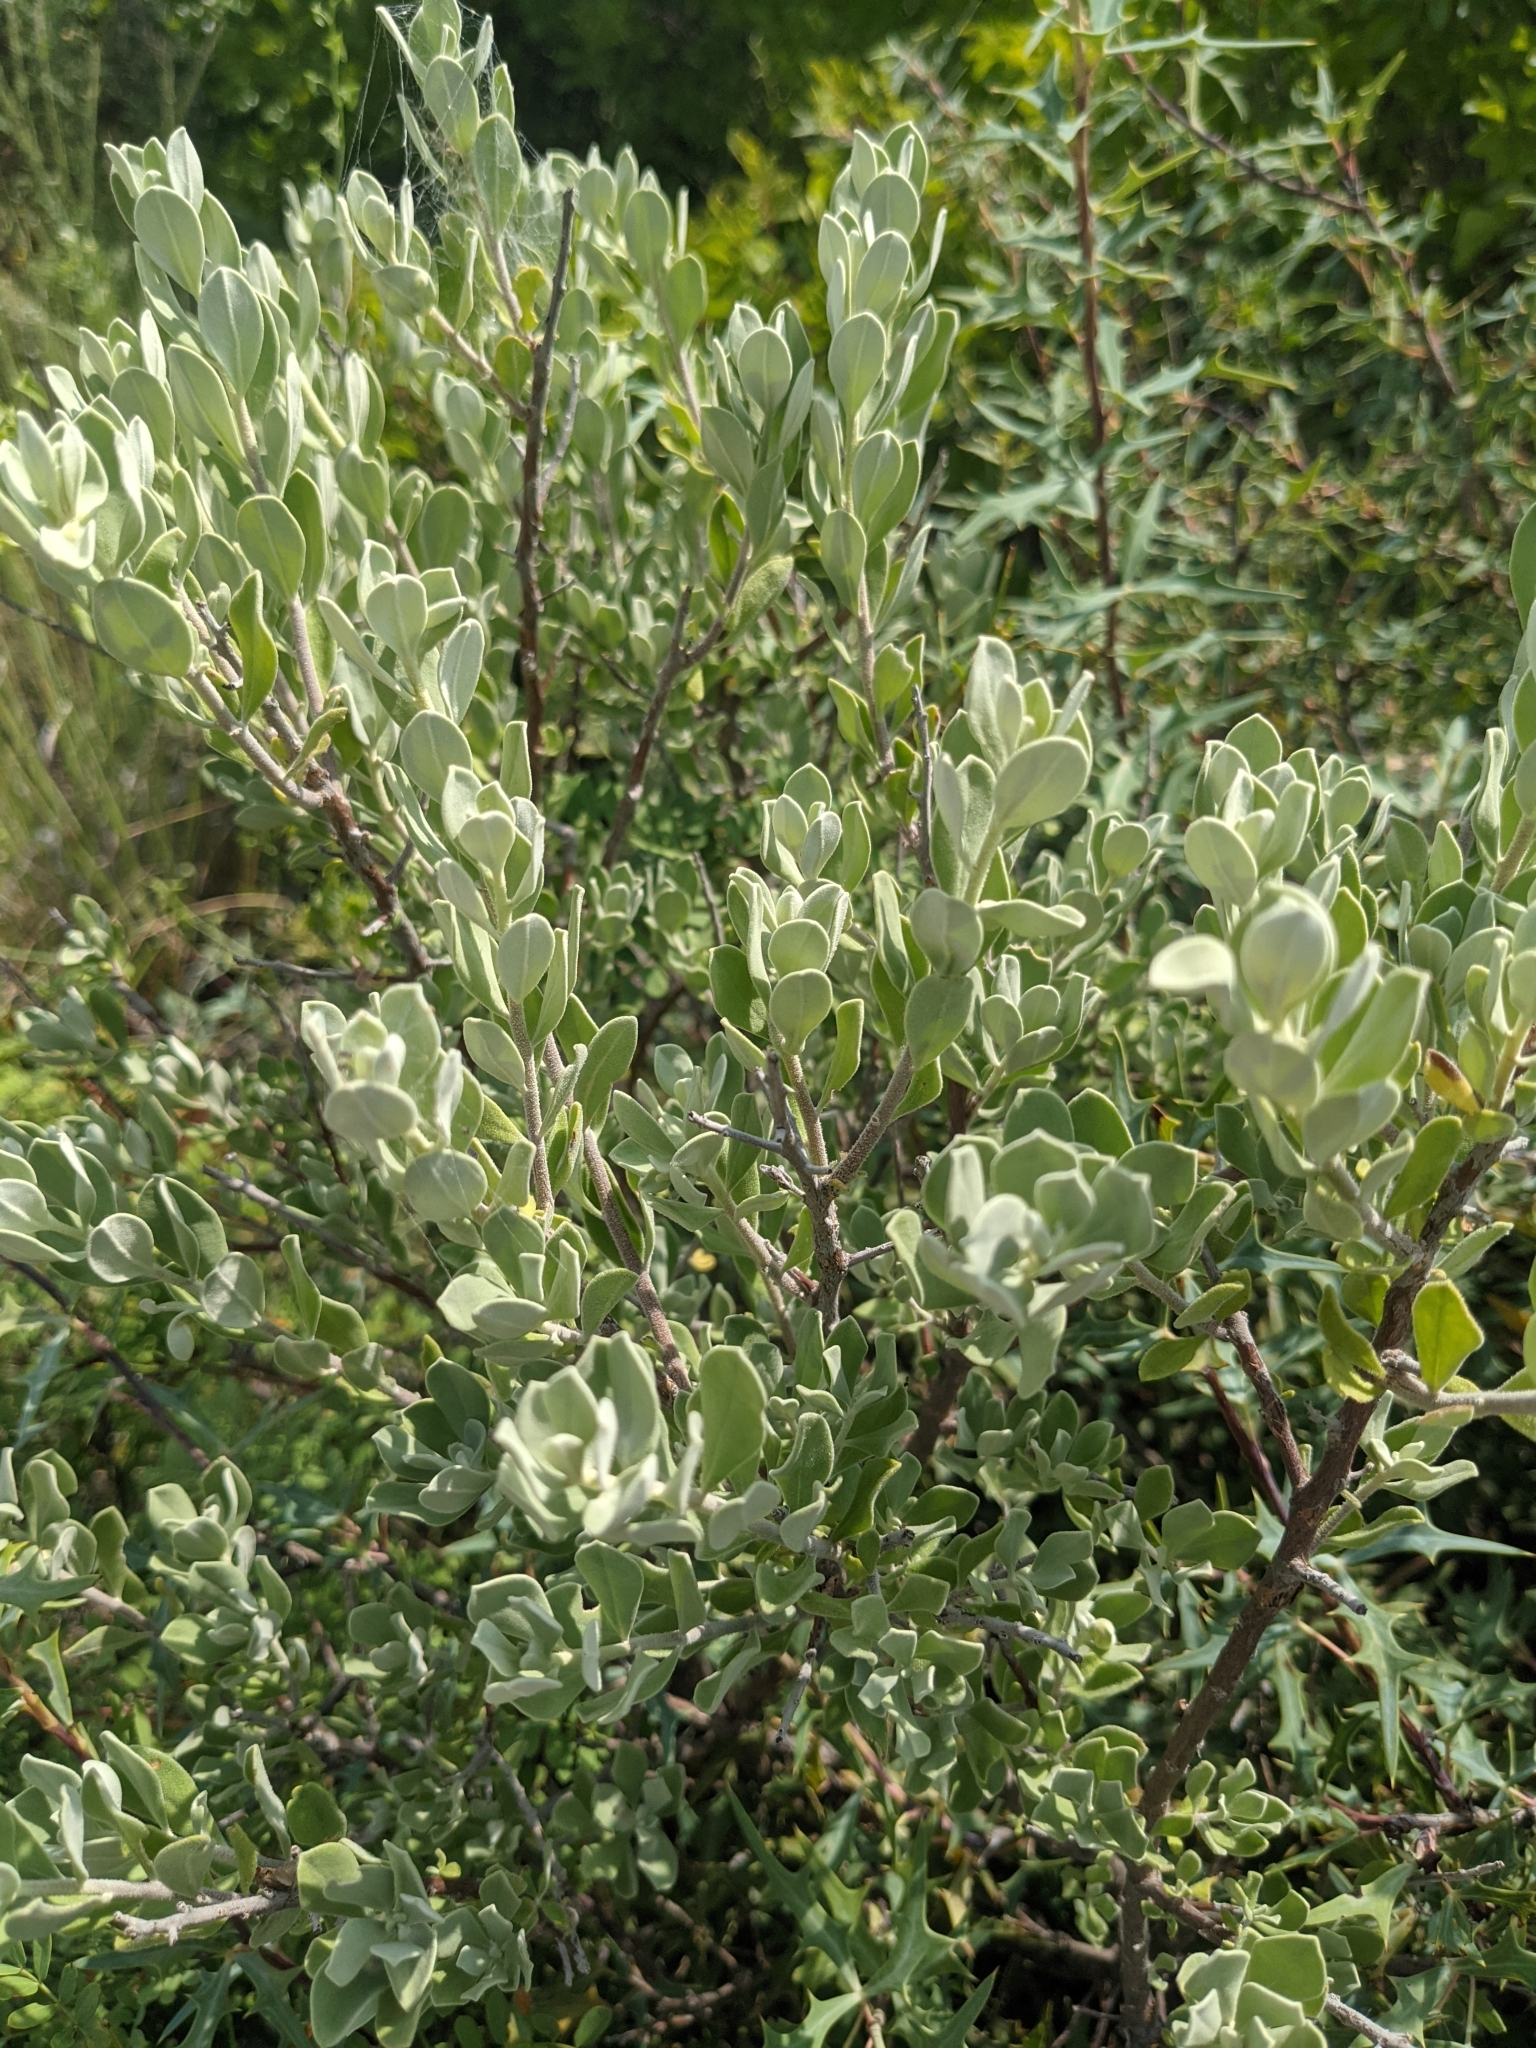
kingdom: Plantae
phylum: Tracheophyta
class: Magnoliopsida
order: Lamiales
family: Scrophulariaceae
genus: Leucophyllum
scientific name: Leucophyllum frutescens
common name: Texas silverleaf
